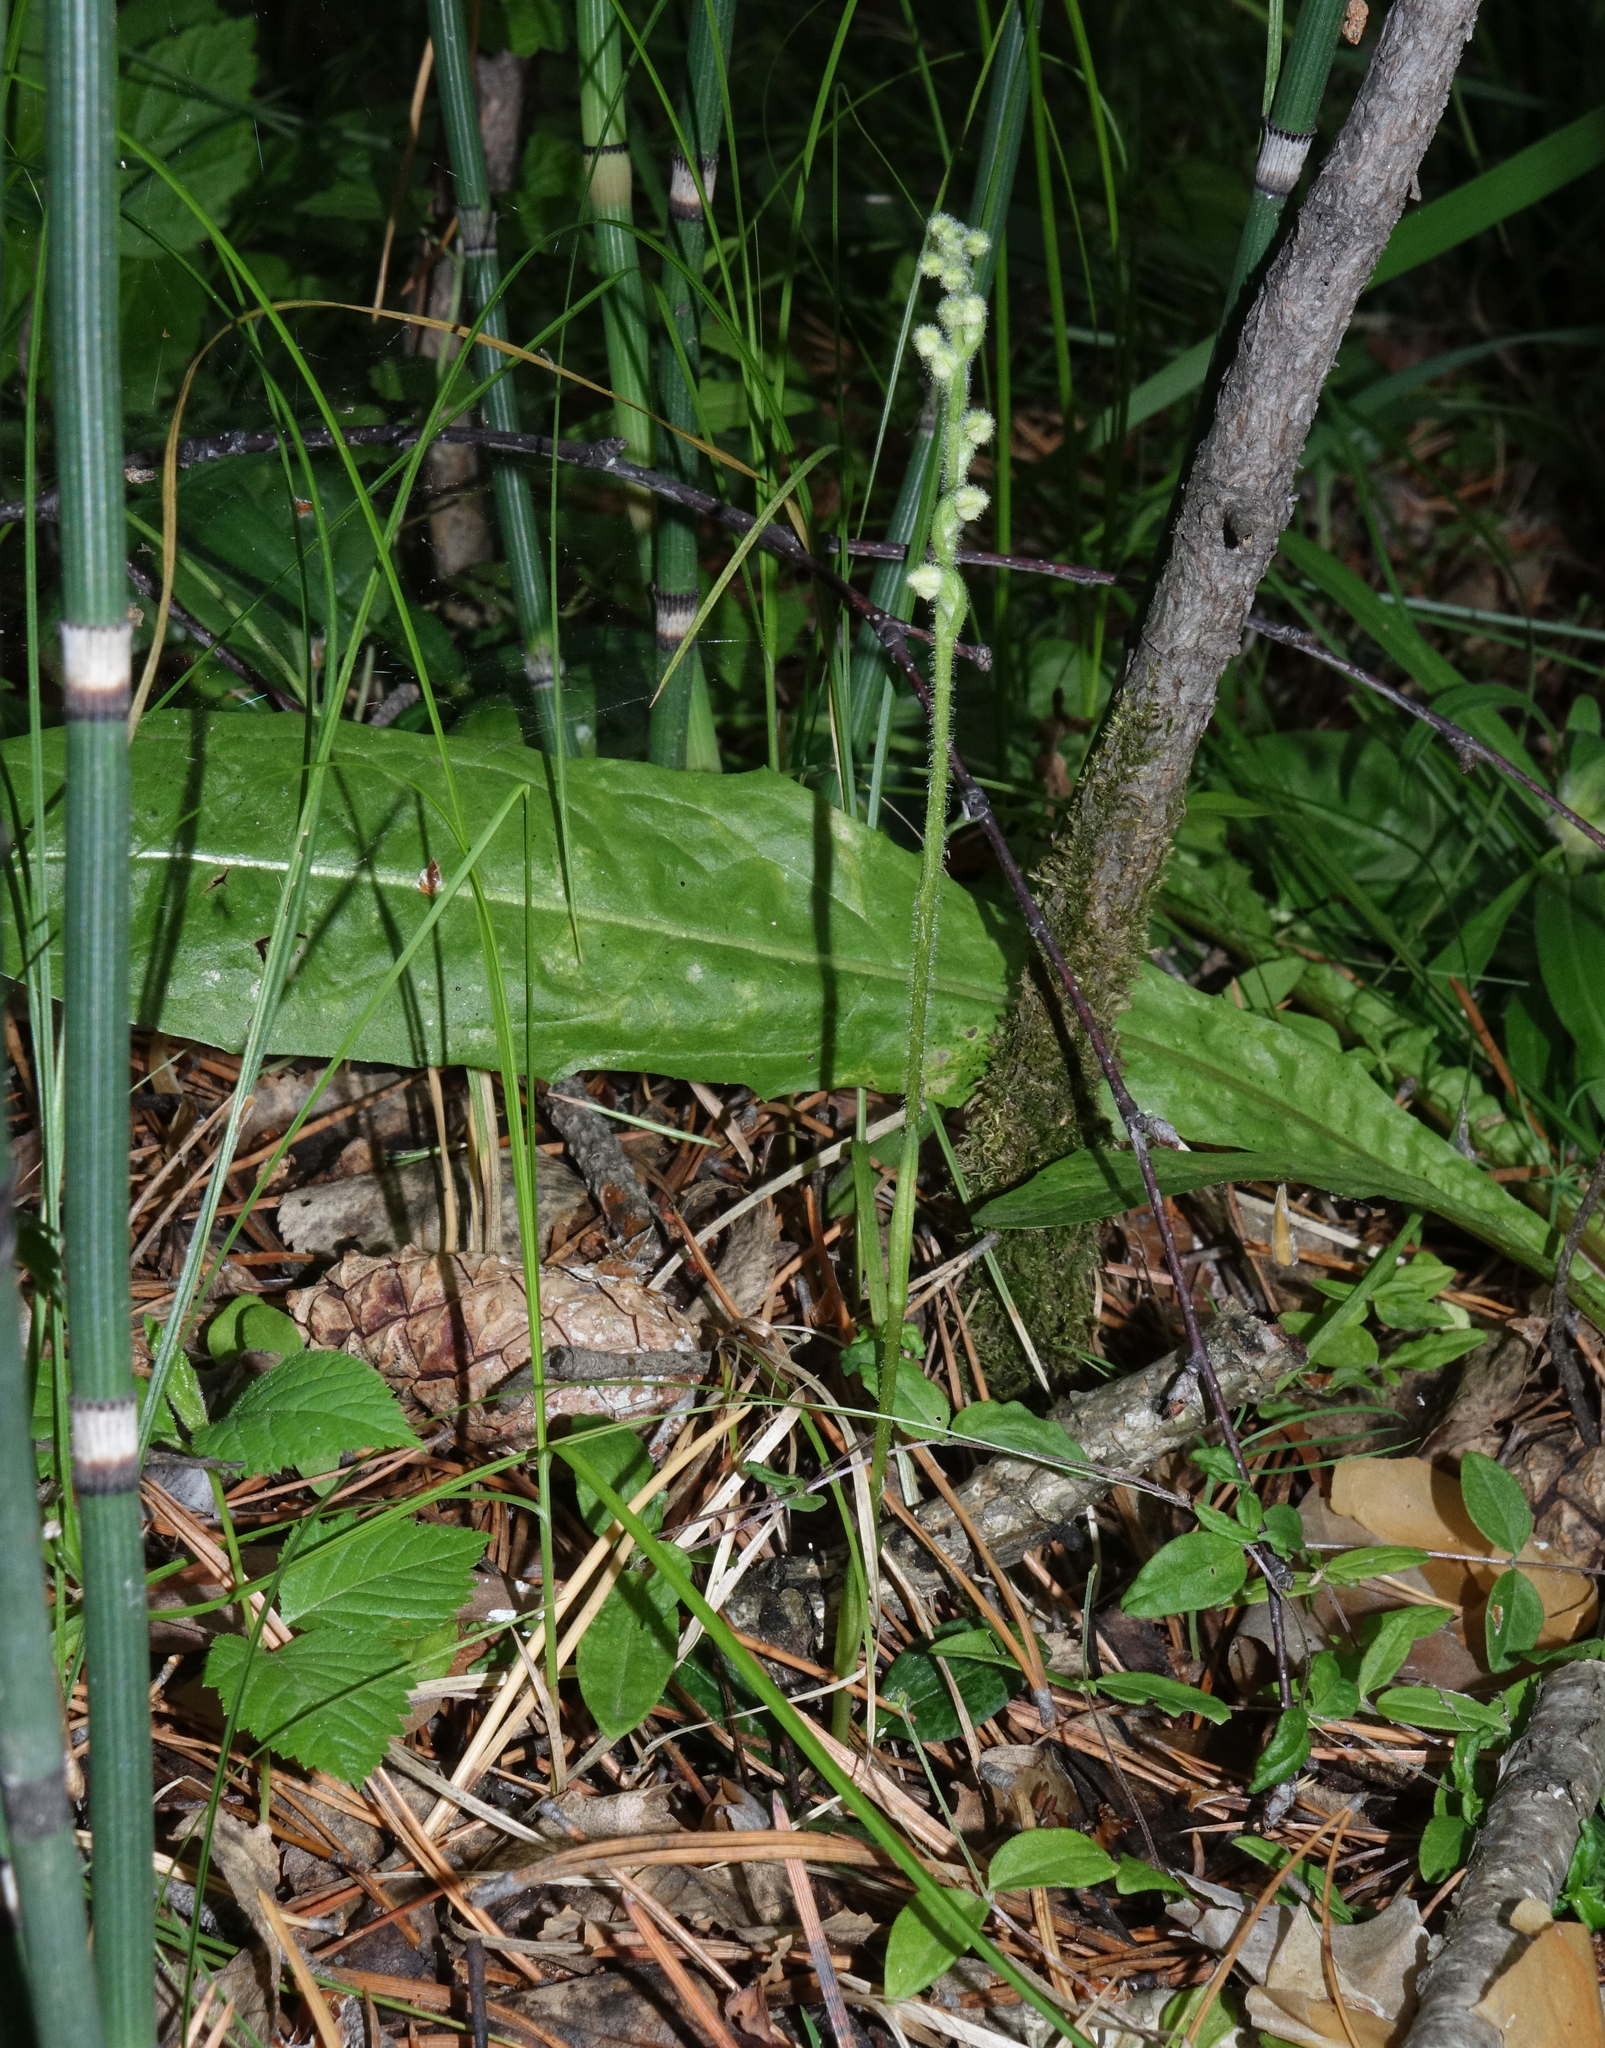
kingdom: Plantae
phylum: Tracheophyta
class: Liliopsida
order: Asparagales
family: Orchidaceae
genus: Goodyera
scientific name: Goodyera repens
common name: Creeping lady's-tresses
